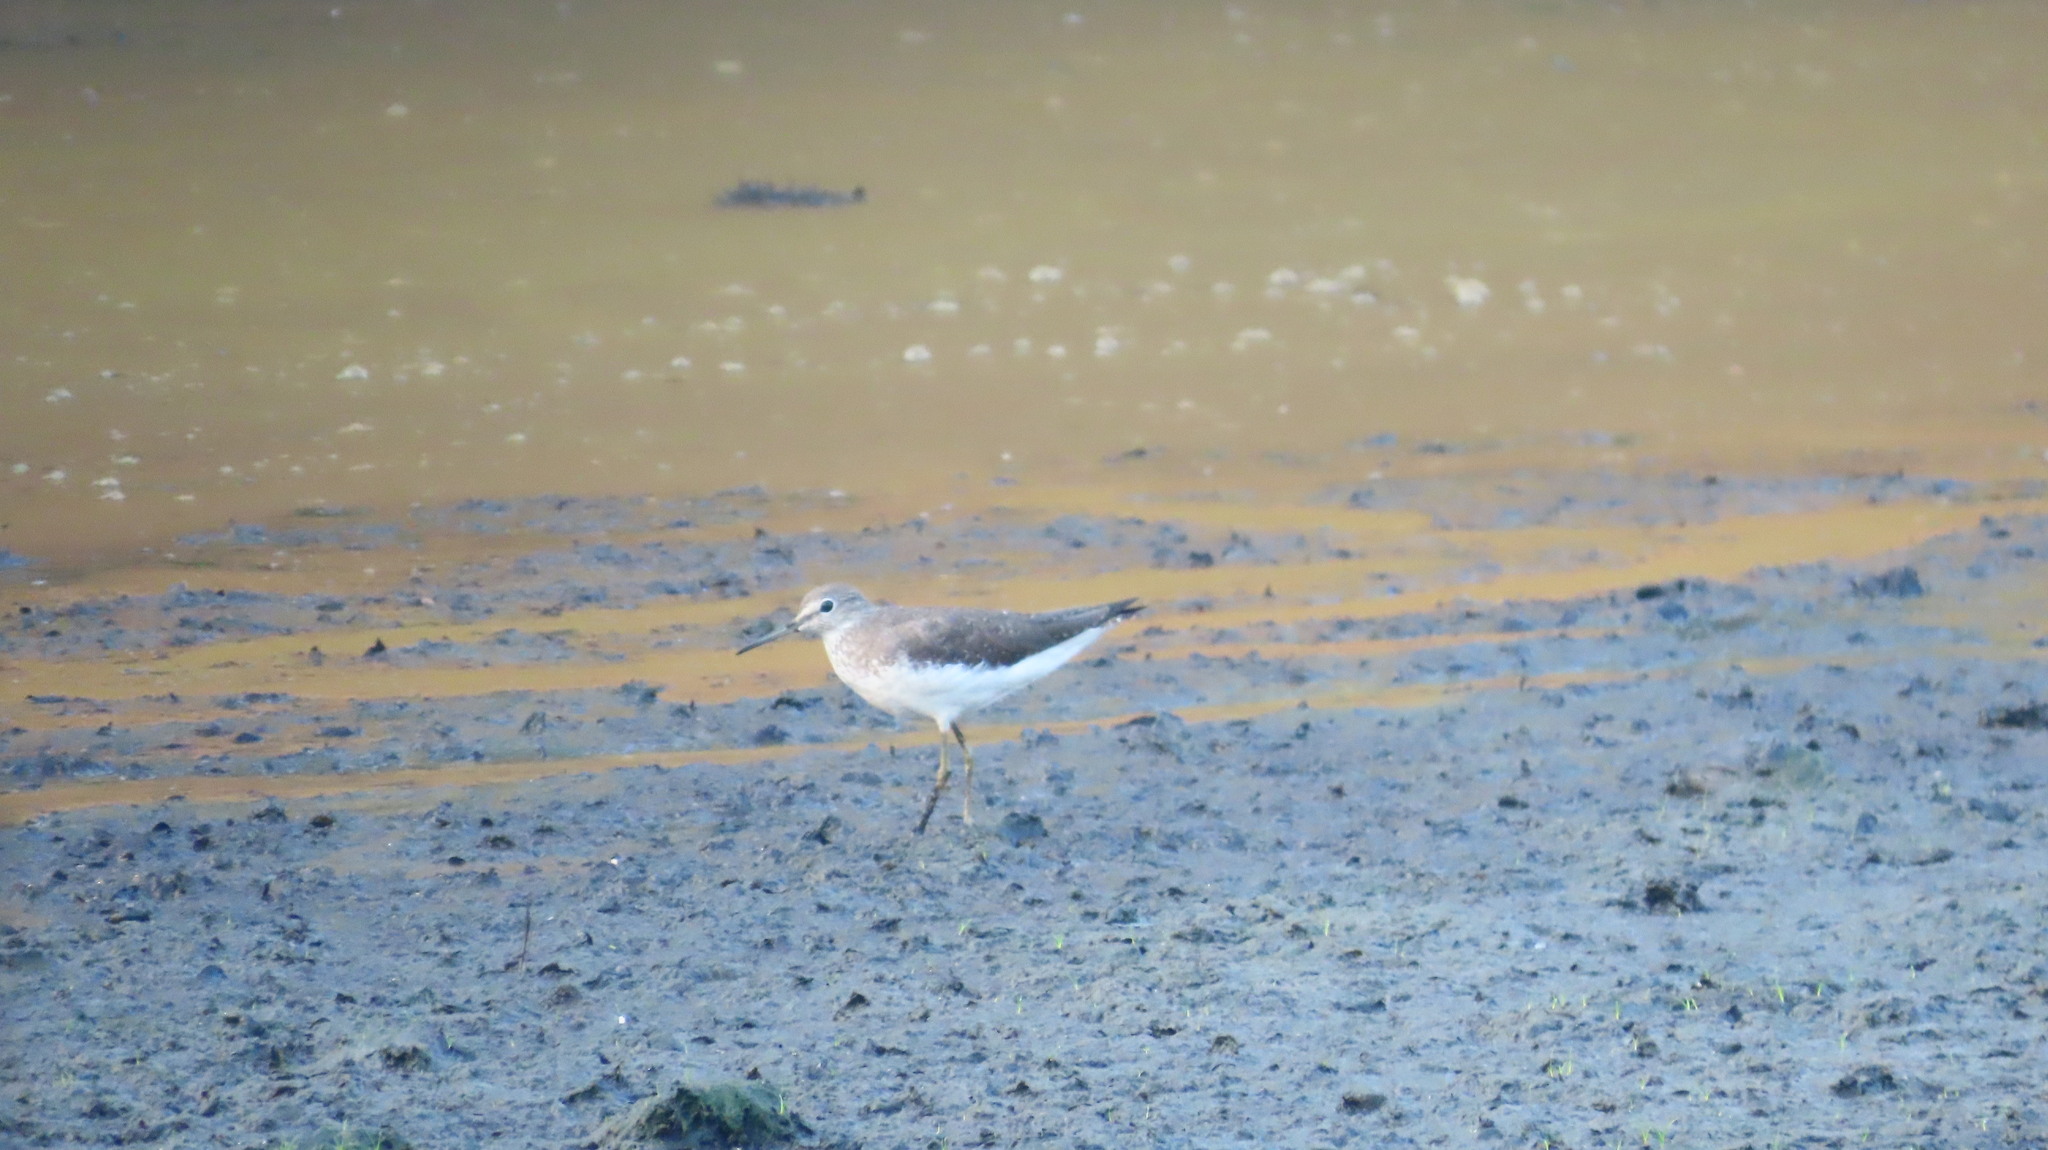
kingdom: Animalia
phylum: Chordata
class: Aves
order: Charadriiformes
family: Scolopacidae
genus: Tringa
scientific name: Tringa glareola
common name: Wood sandpiper
